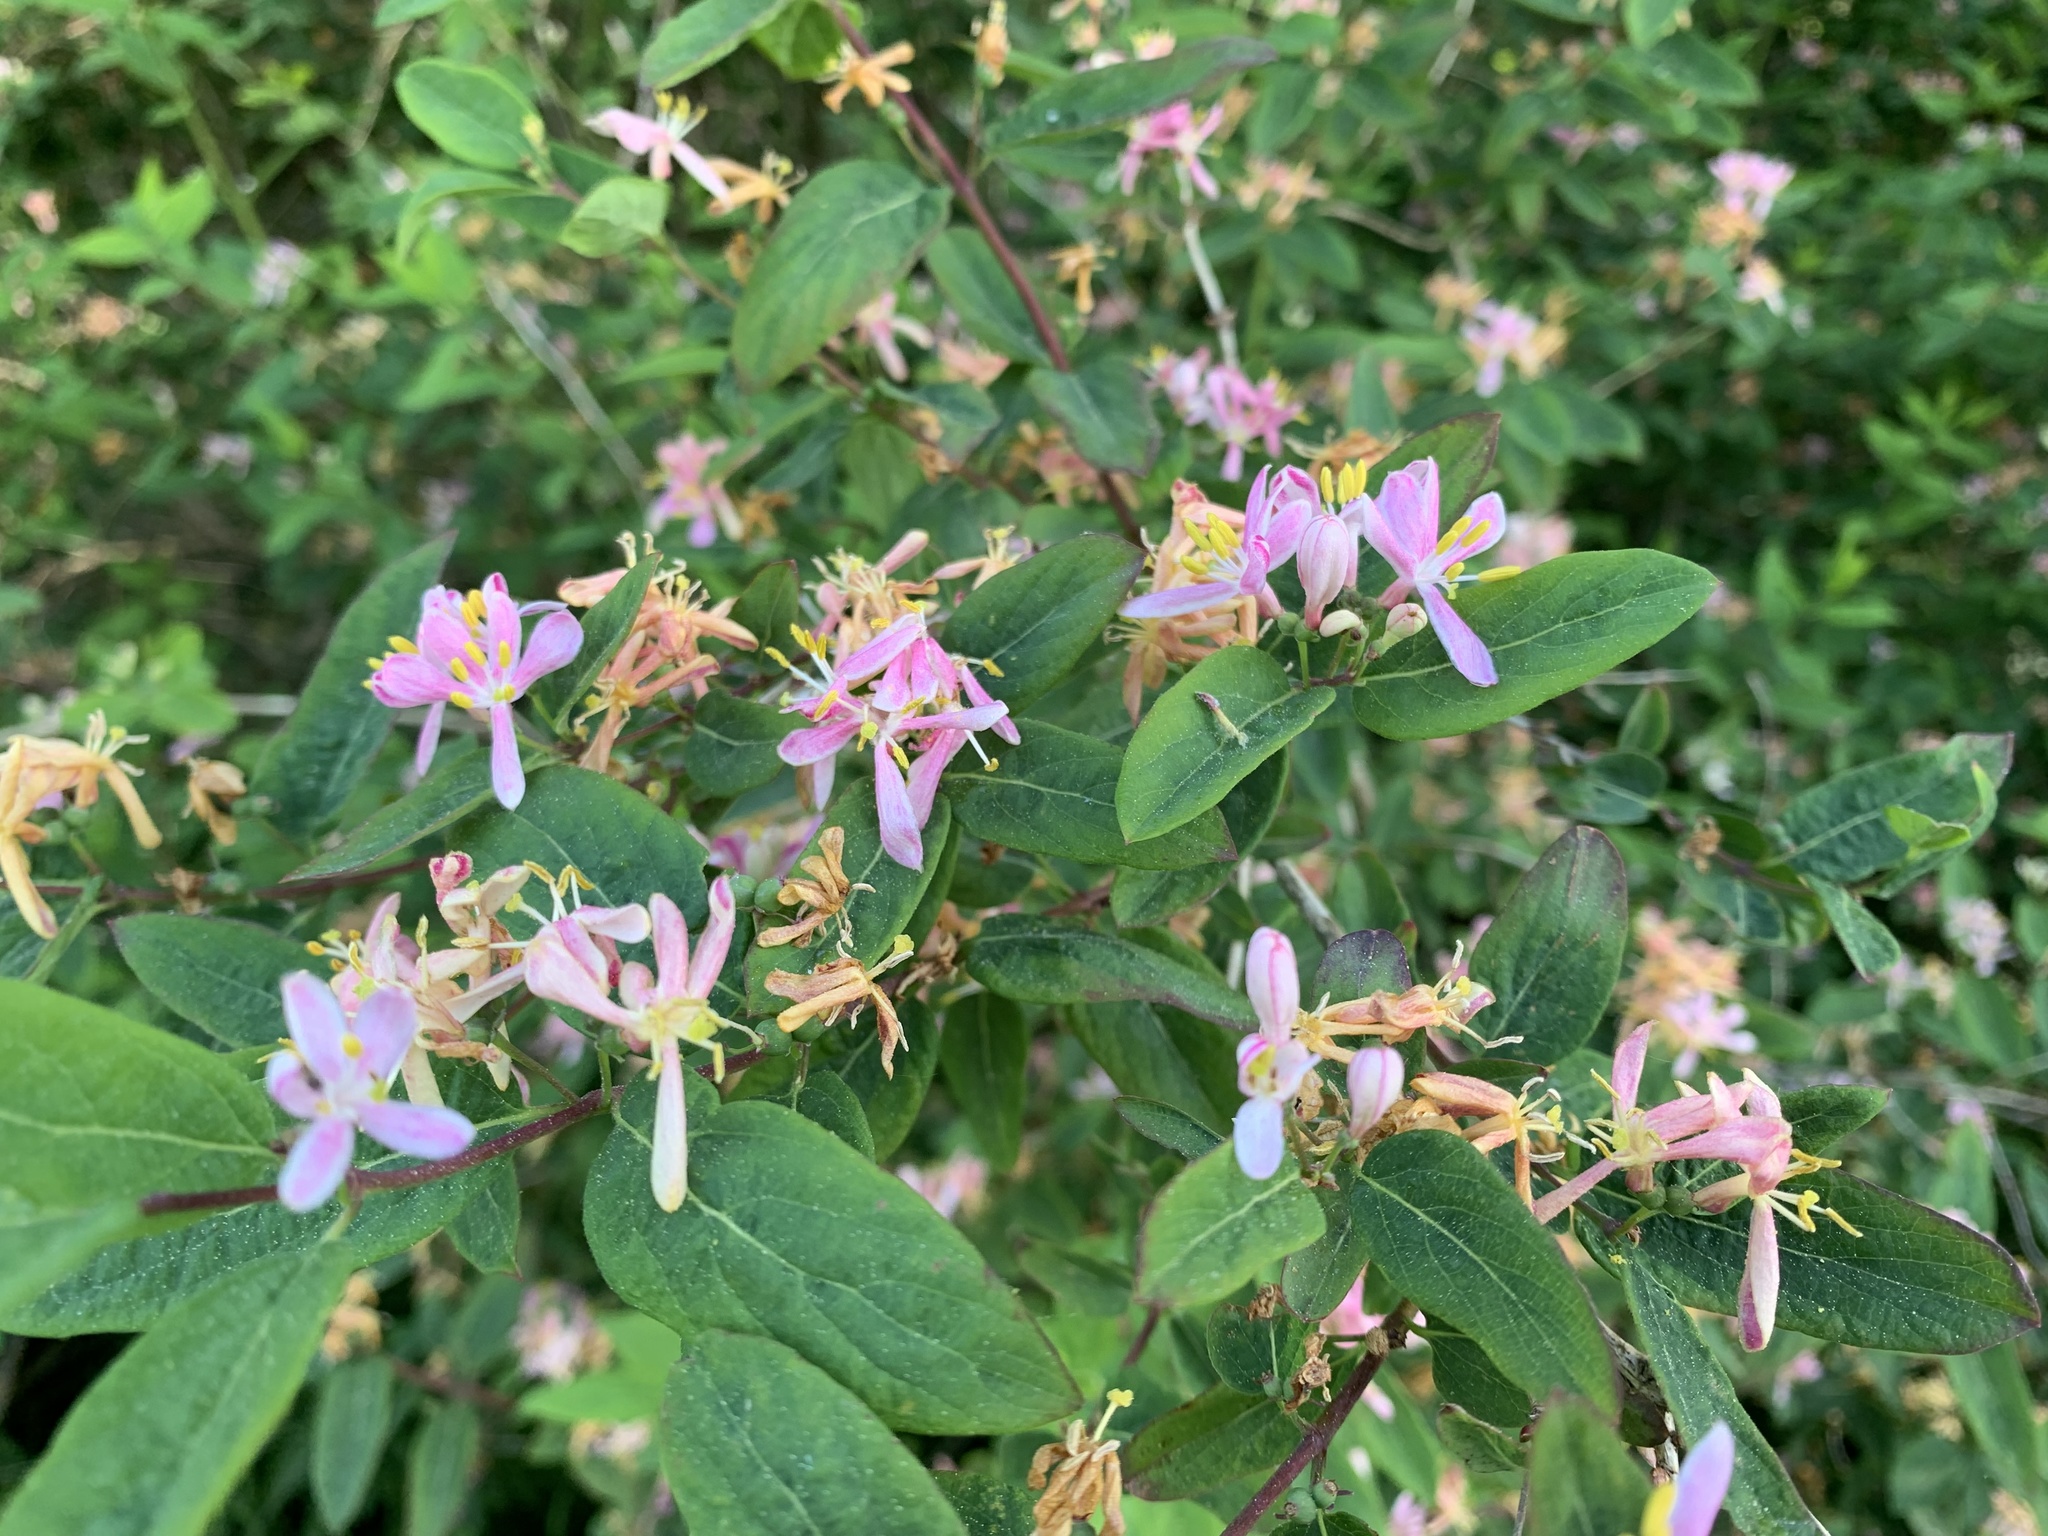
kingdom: Plantae
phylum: Tracheophyta
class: Magnoliopsida
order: Dipsacales
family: Caprifoliaceae
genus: Lonicera
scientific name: Lonicera tatarica
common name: Tatarian honeysuckle
